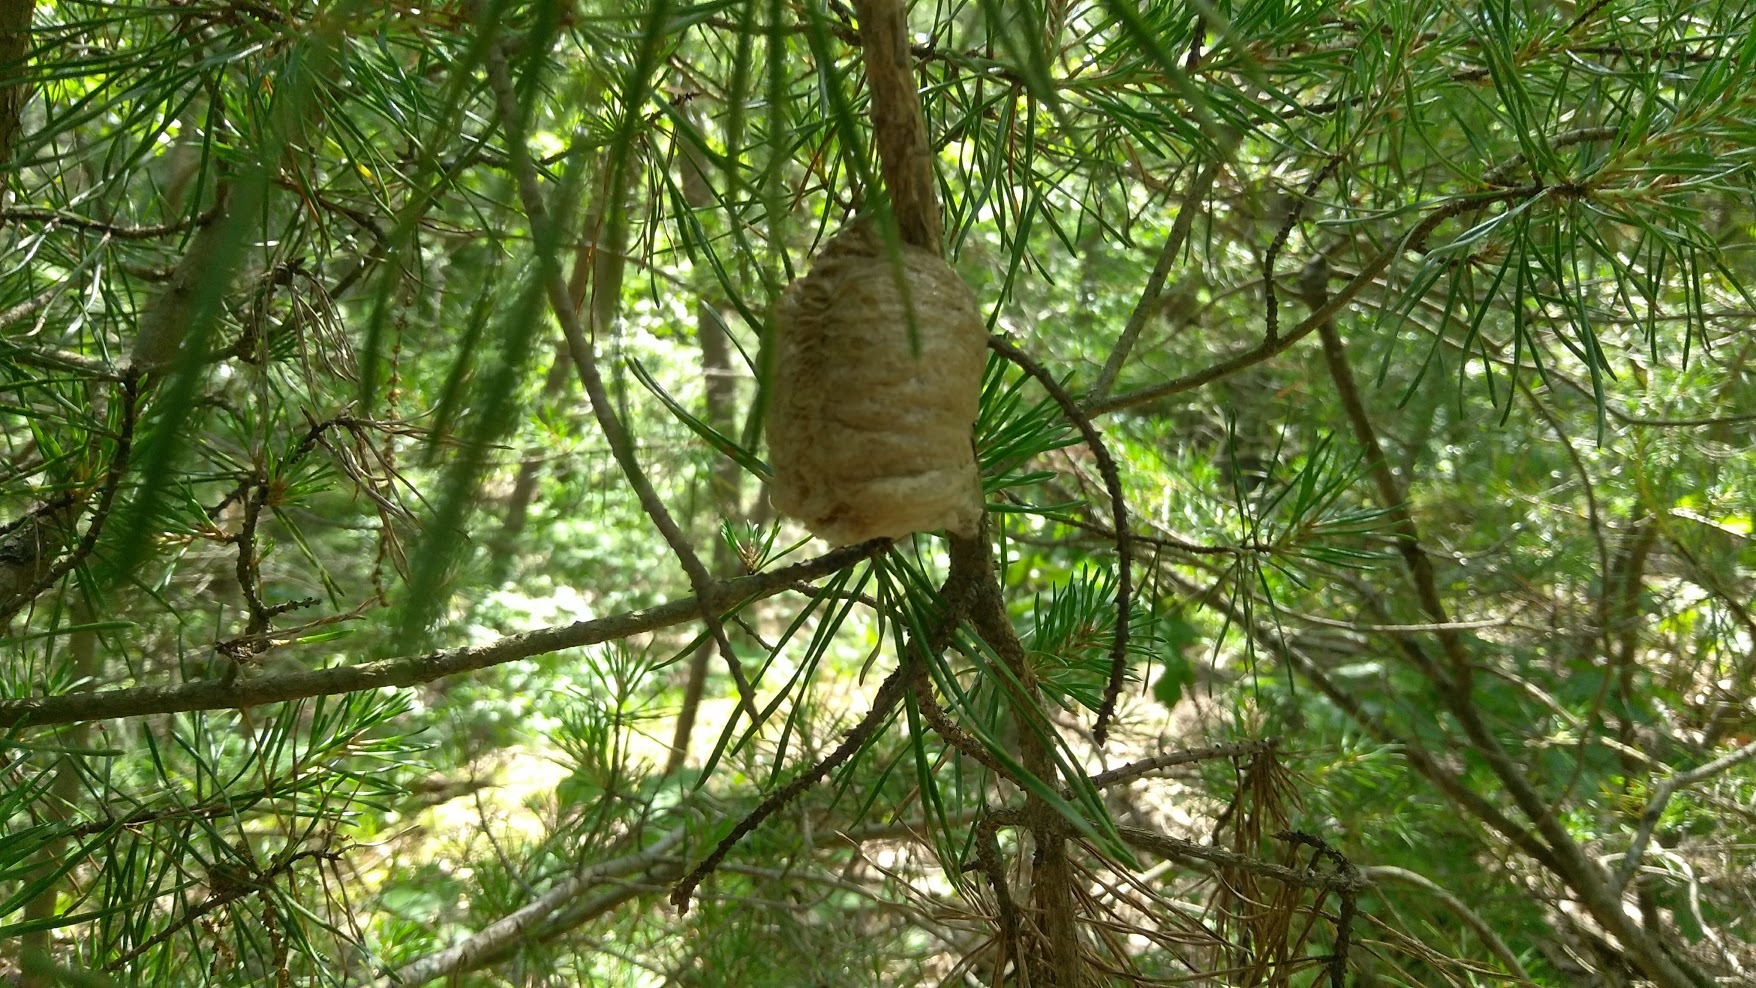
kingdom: Animalia
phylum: Arthropoda
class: Insecta
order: Mantodea
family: Mantidae
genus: Tenodera
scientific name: Tenodera sinensis
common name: Chinese mantis
